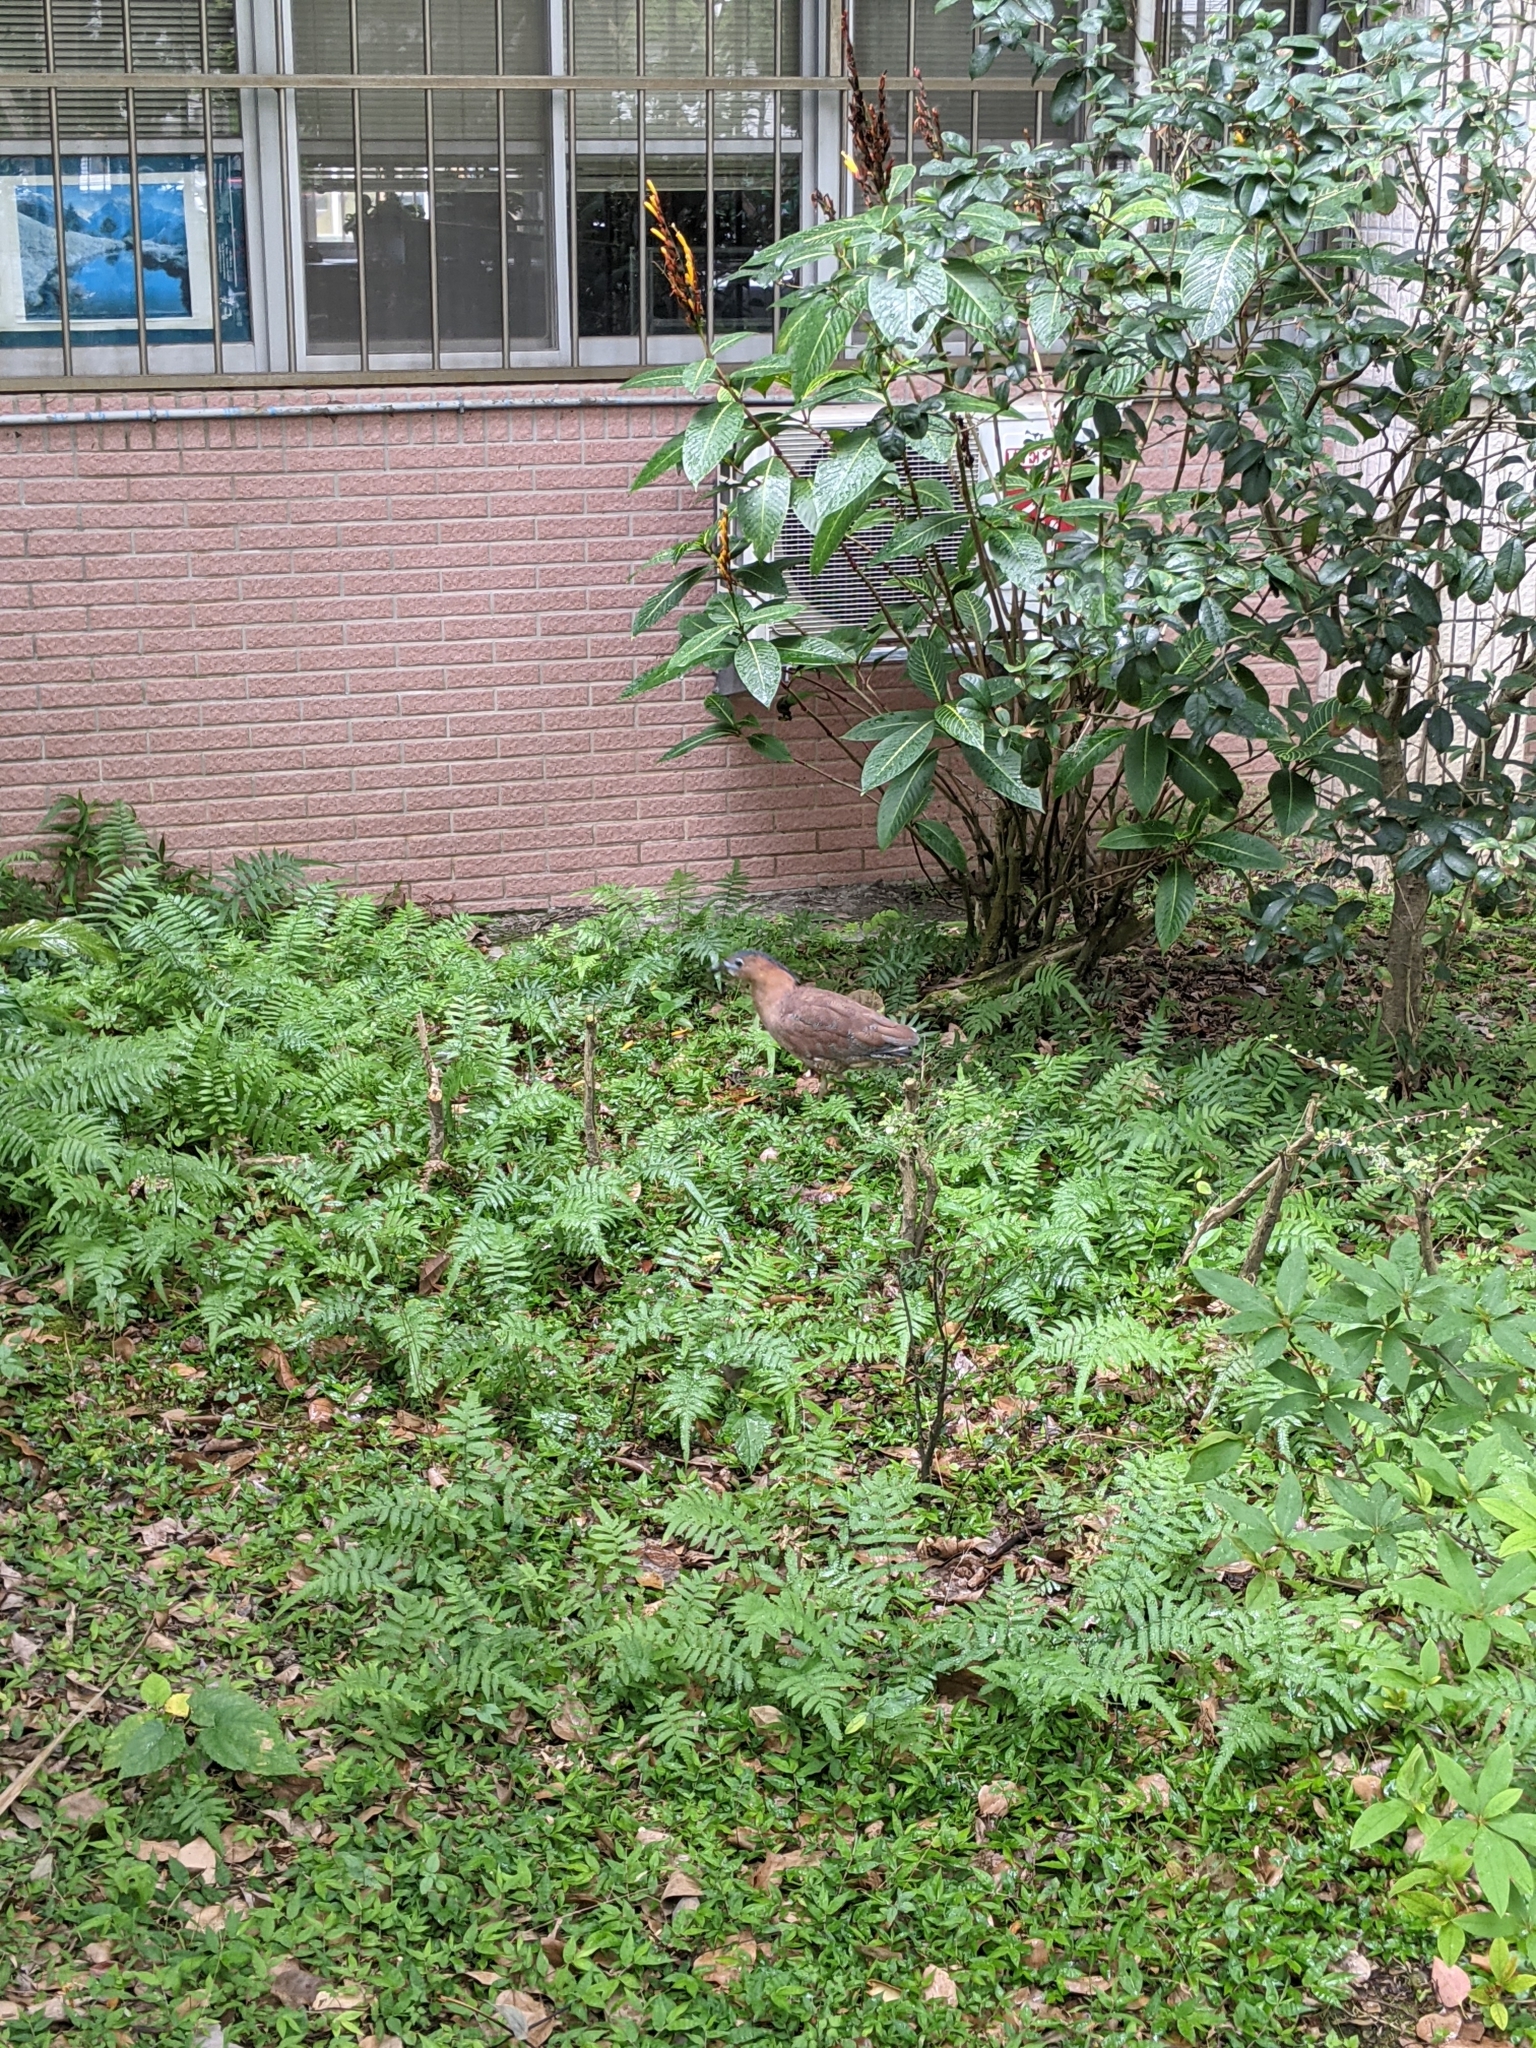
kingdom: Animalia
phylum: Chordata
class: Aves
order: Pelecaniformes
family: Ardeidae
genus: Gorsachius
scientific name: Gorsachius melanolophus
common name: Malayan night heron
